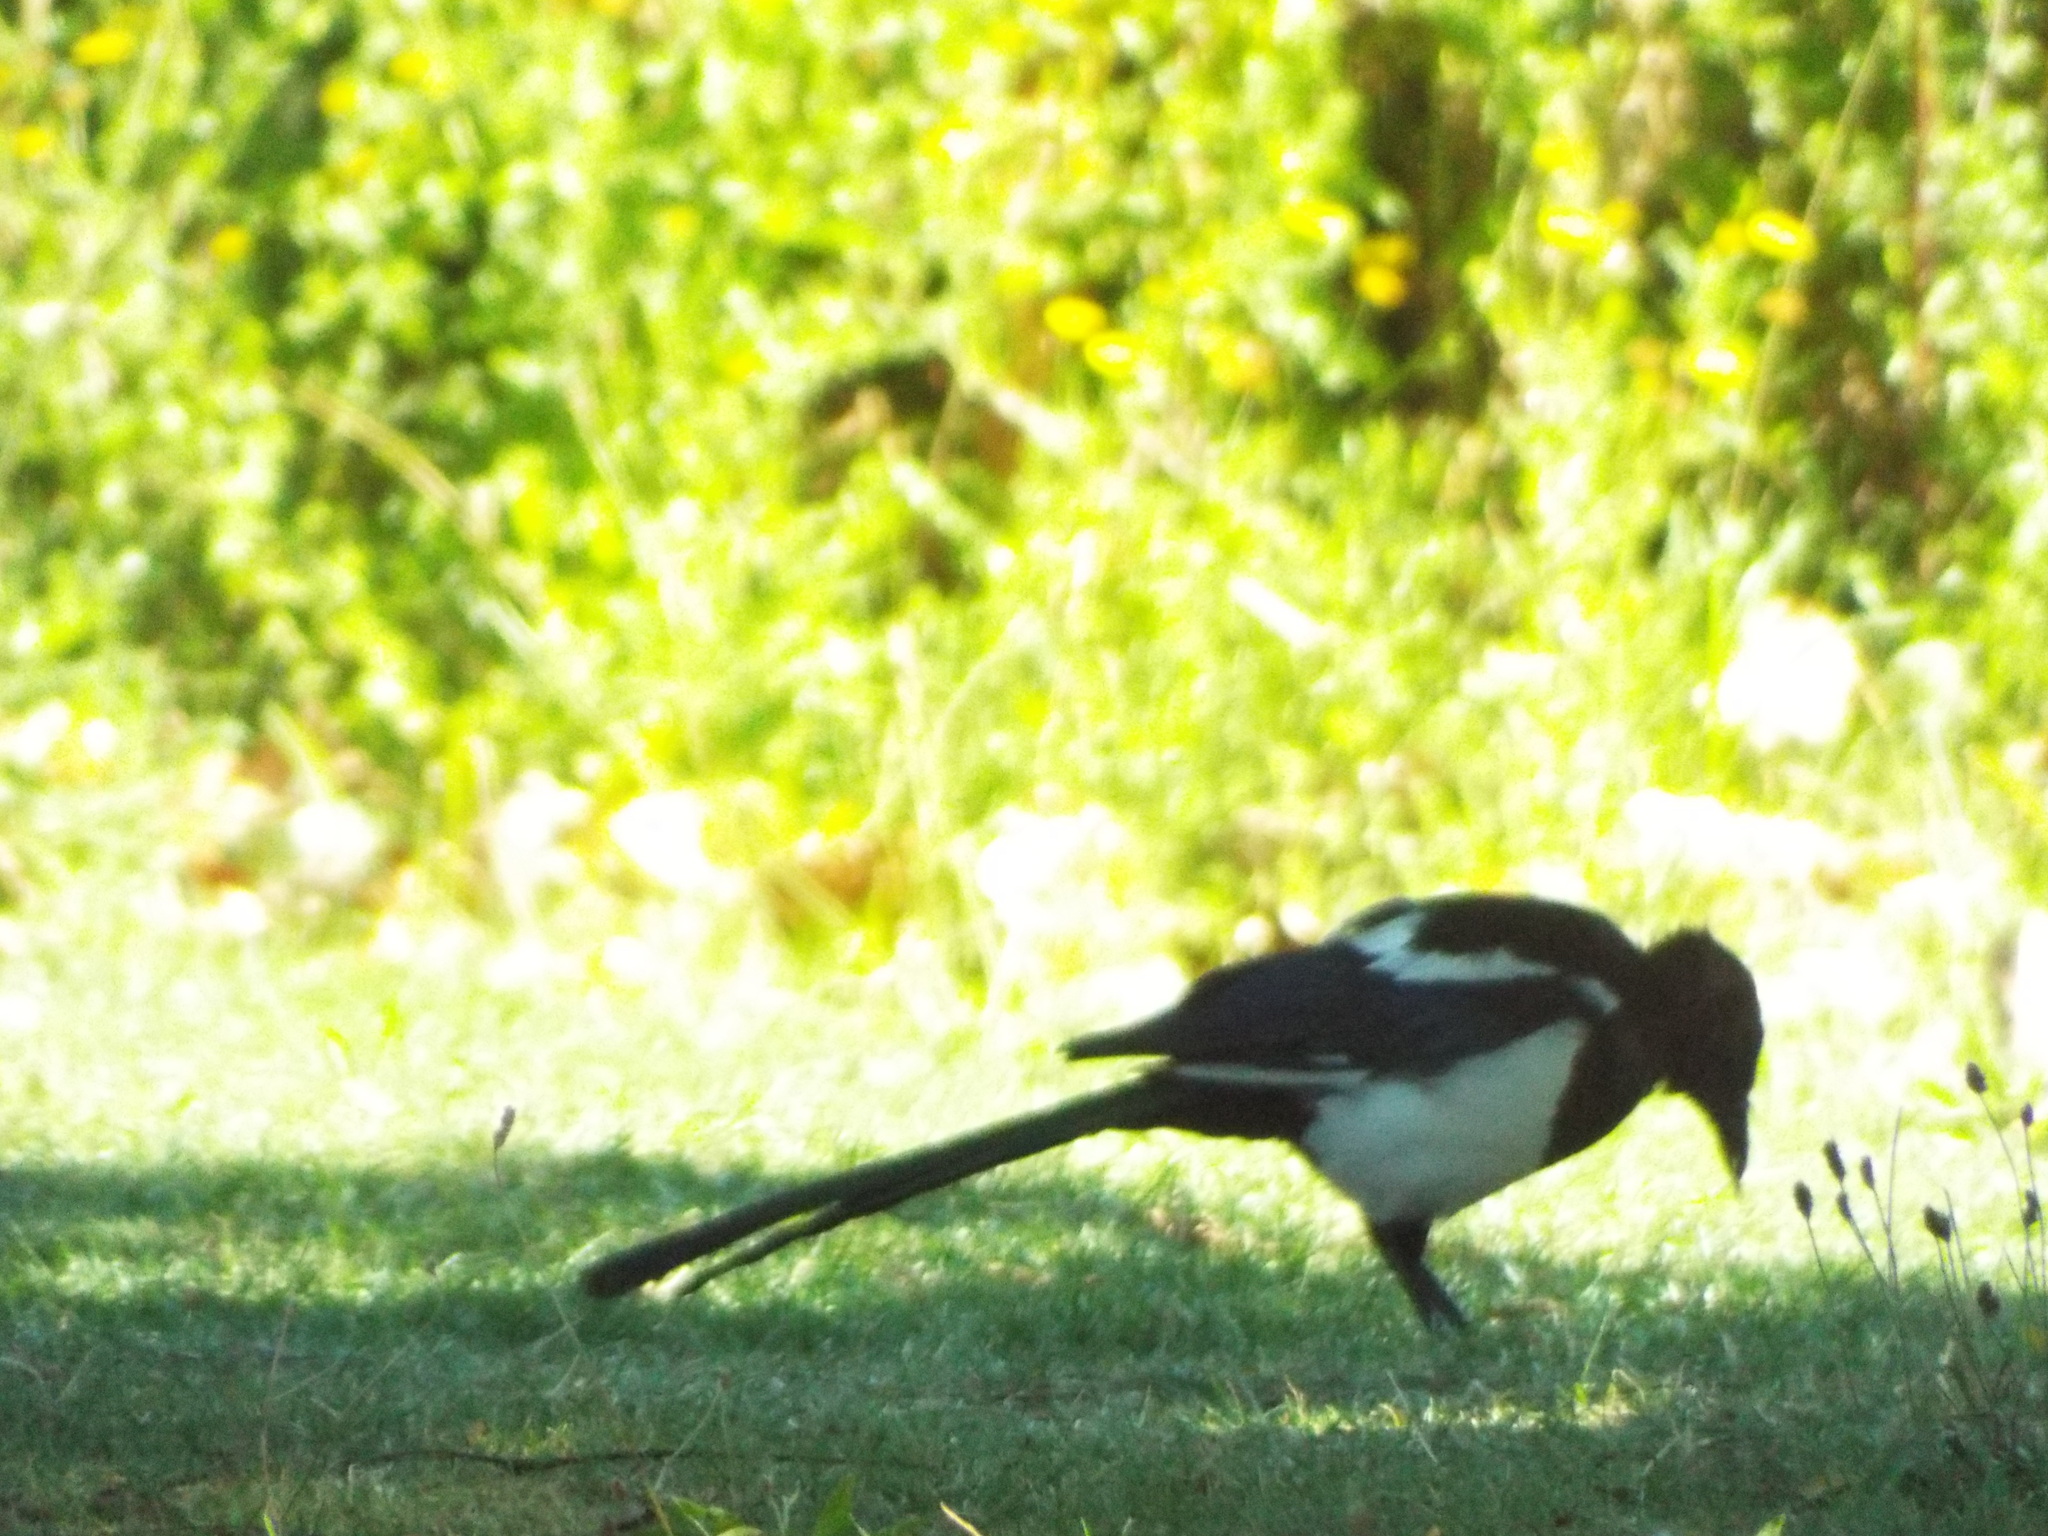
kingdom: Animalia
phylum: Chordata
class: Aves
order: Passeriformes
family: Corvidae
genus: Pica
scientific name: Pica pica
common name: Eurasian magpie
